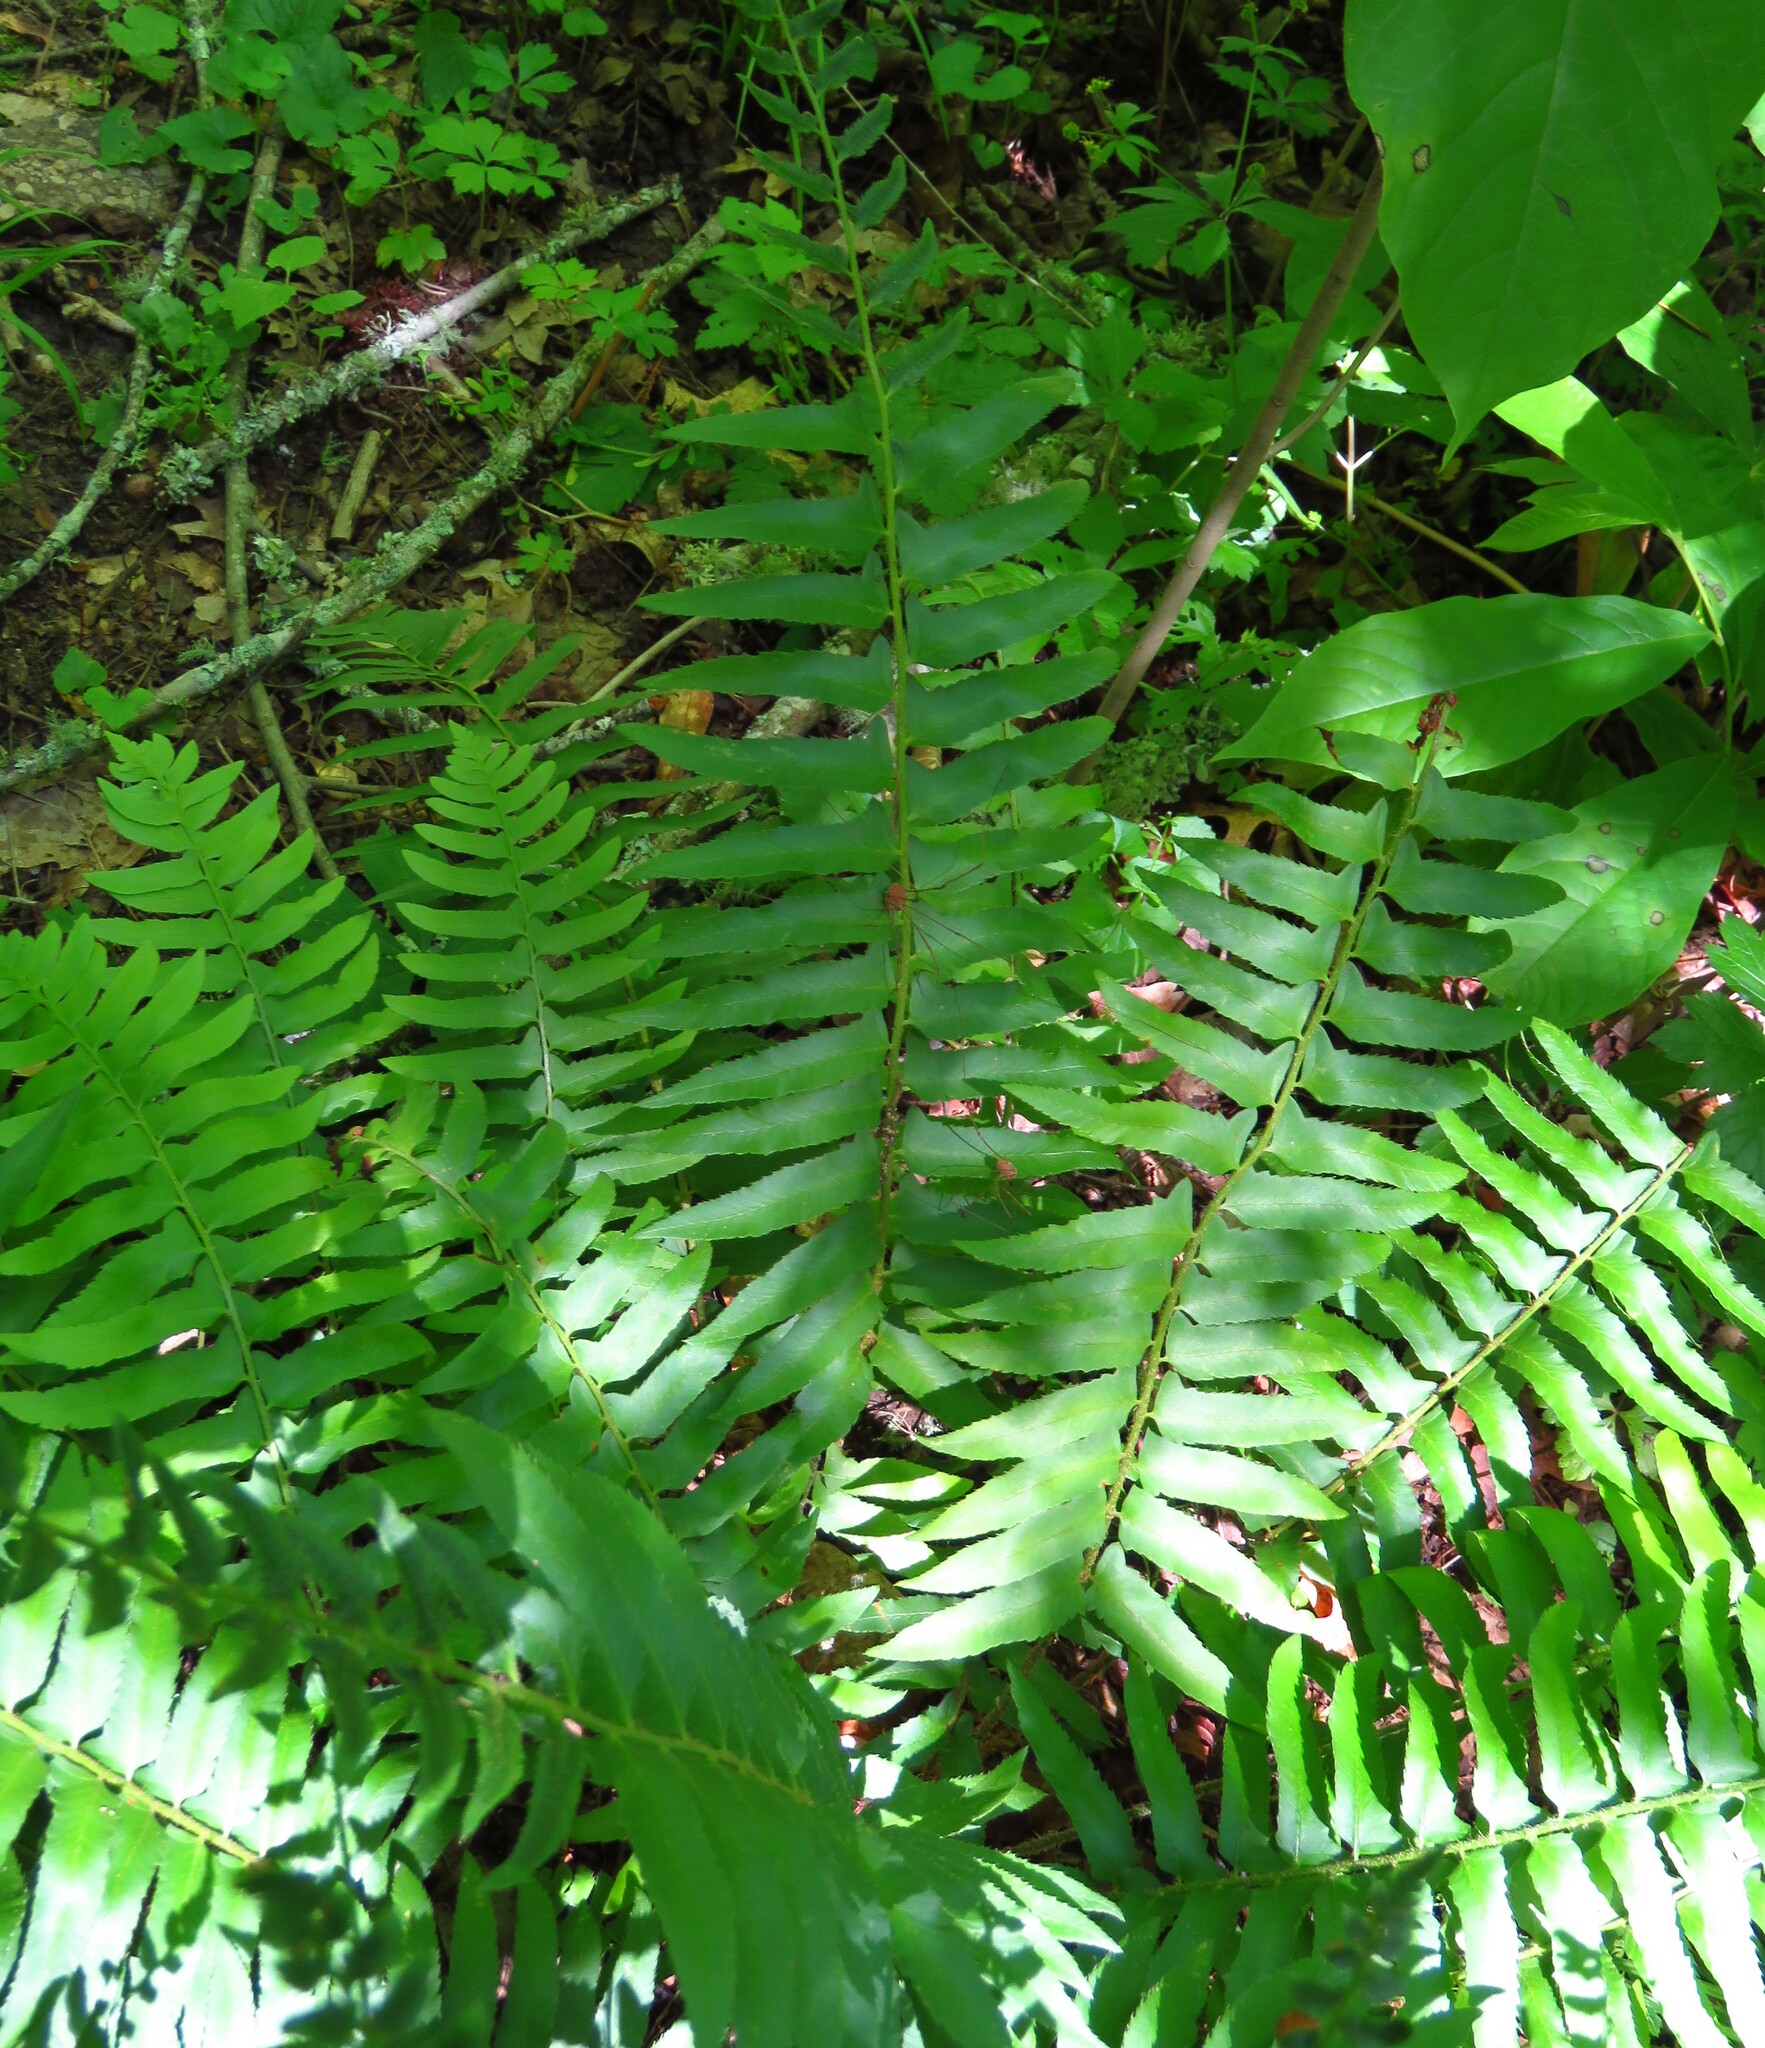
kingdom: Plantae
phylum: Tracheophyta
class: Polypodiopsida
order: Polypodiales
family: Dryopteridaceae
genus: Polystichum
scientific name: Polystichum acrostichoides
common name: Christmas fern
